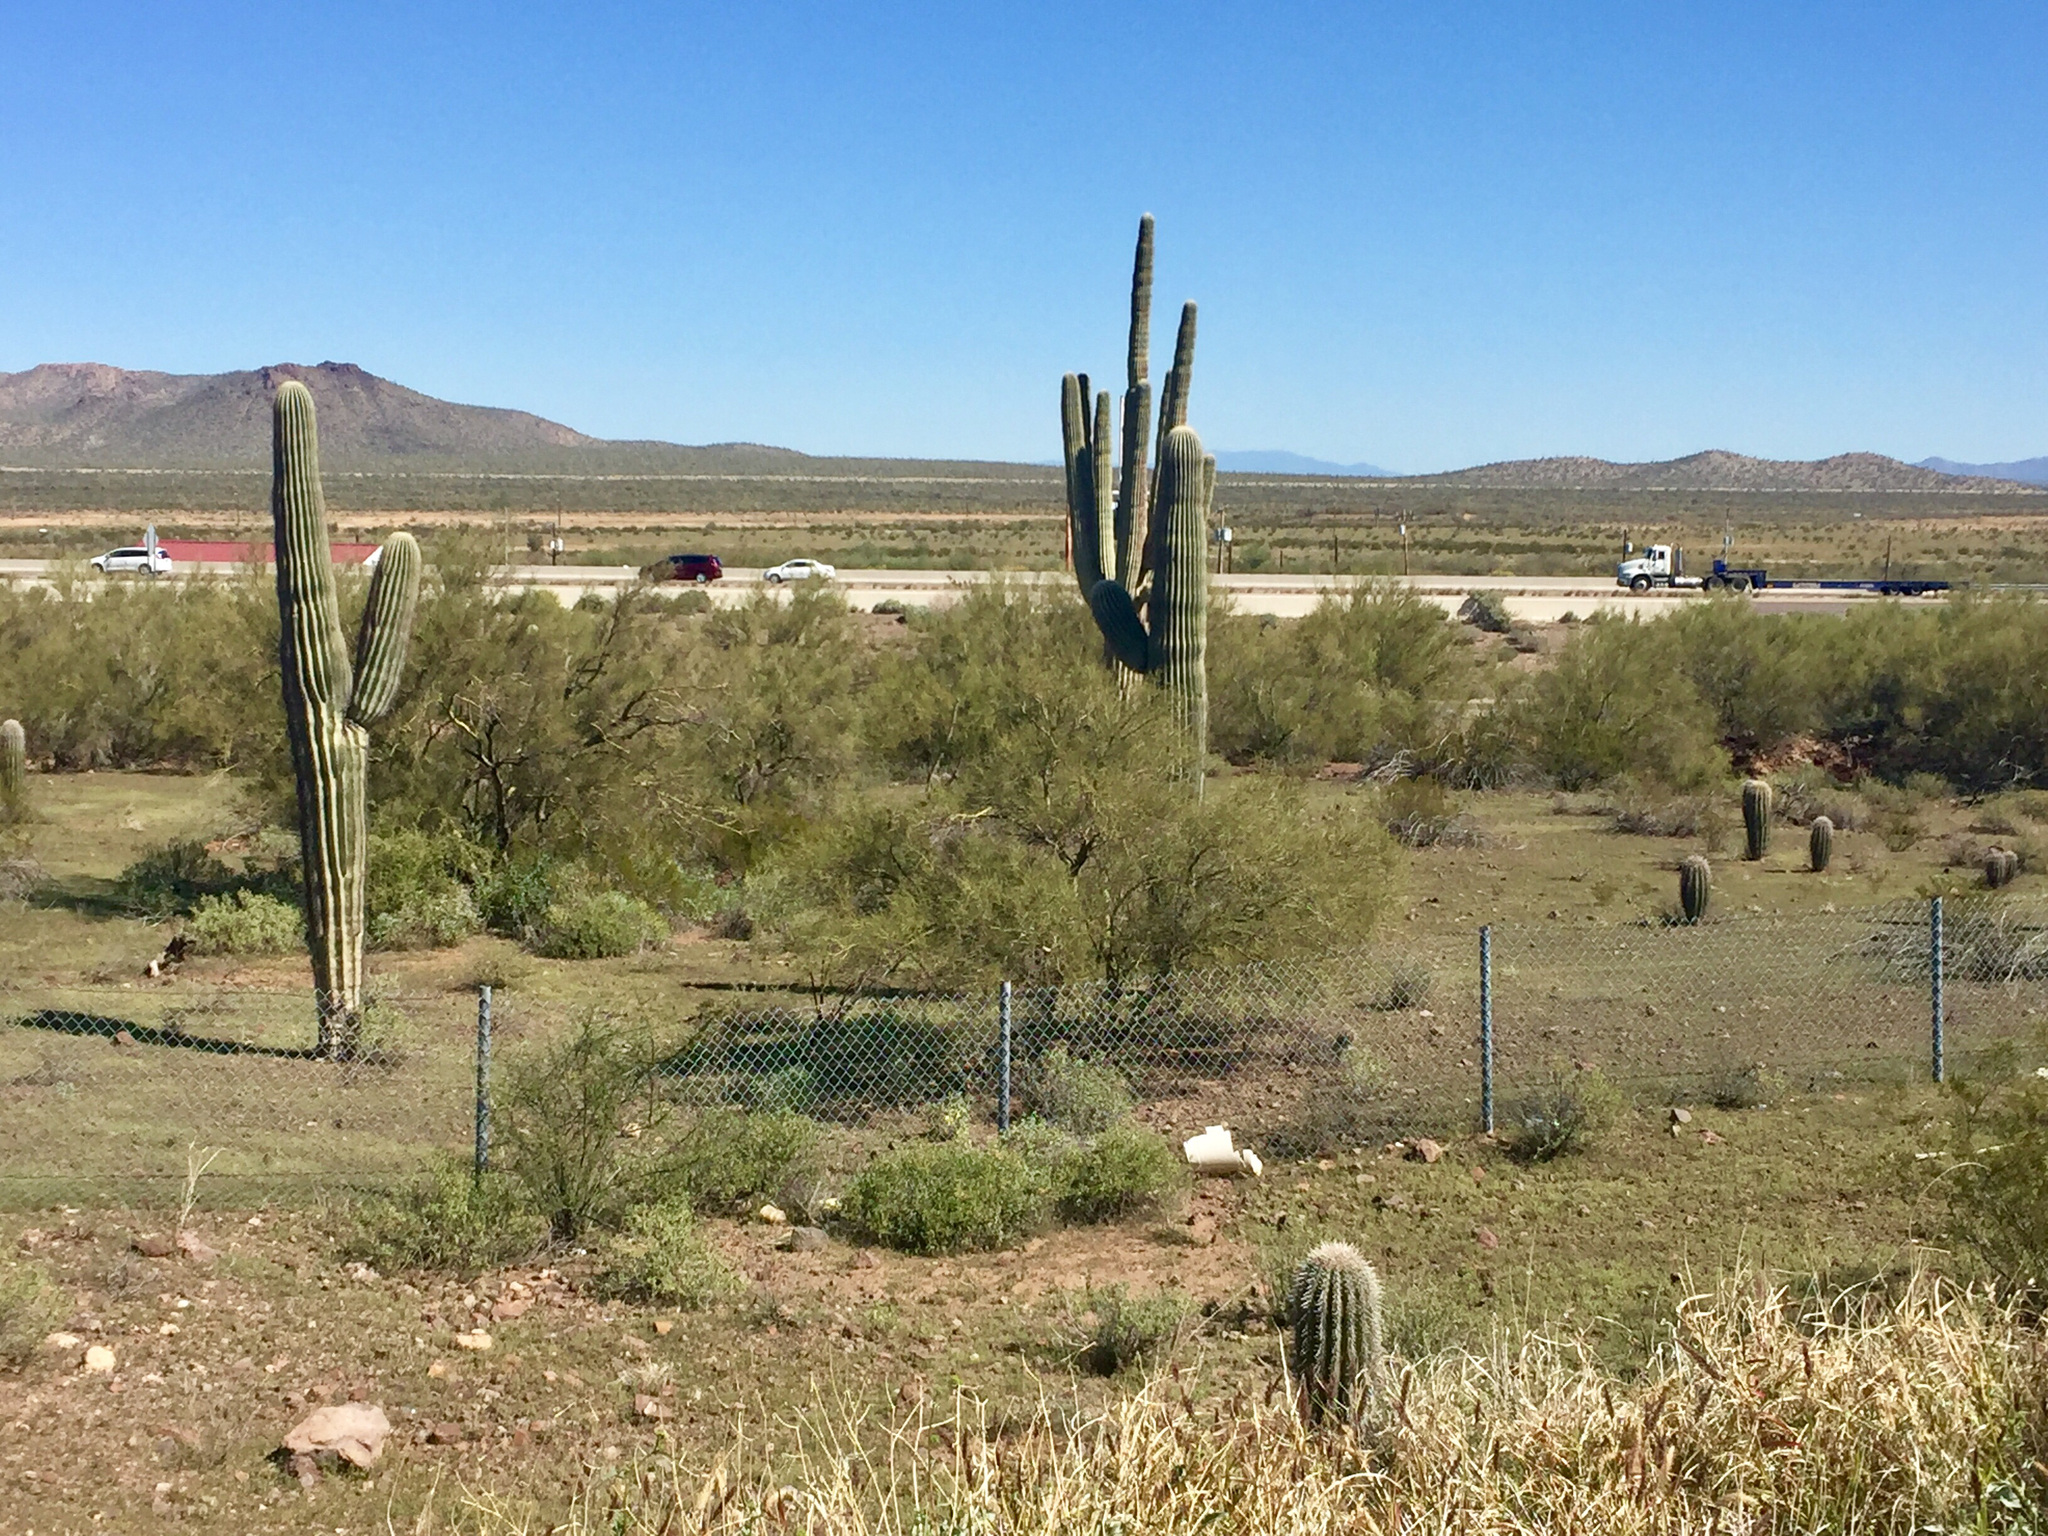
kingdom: Plantae
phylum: Tracheophyta
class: Magnoliopsida
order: Caryophyllales
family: Cactaceae
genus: Carnegiea
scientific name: Carnegiea gigantea
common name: Saguaro
